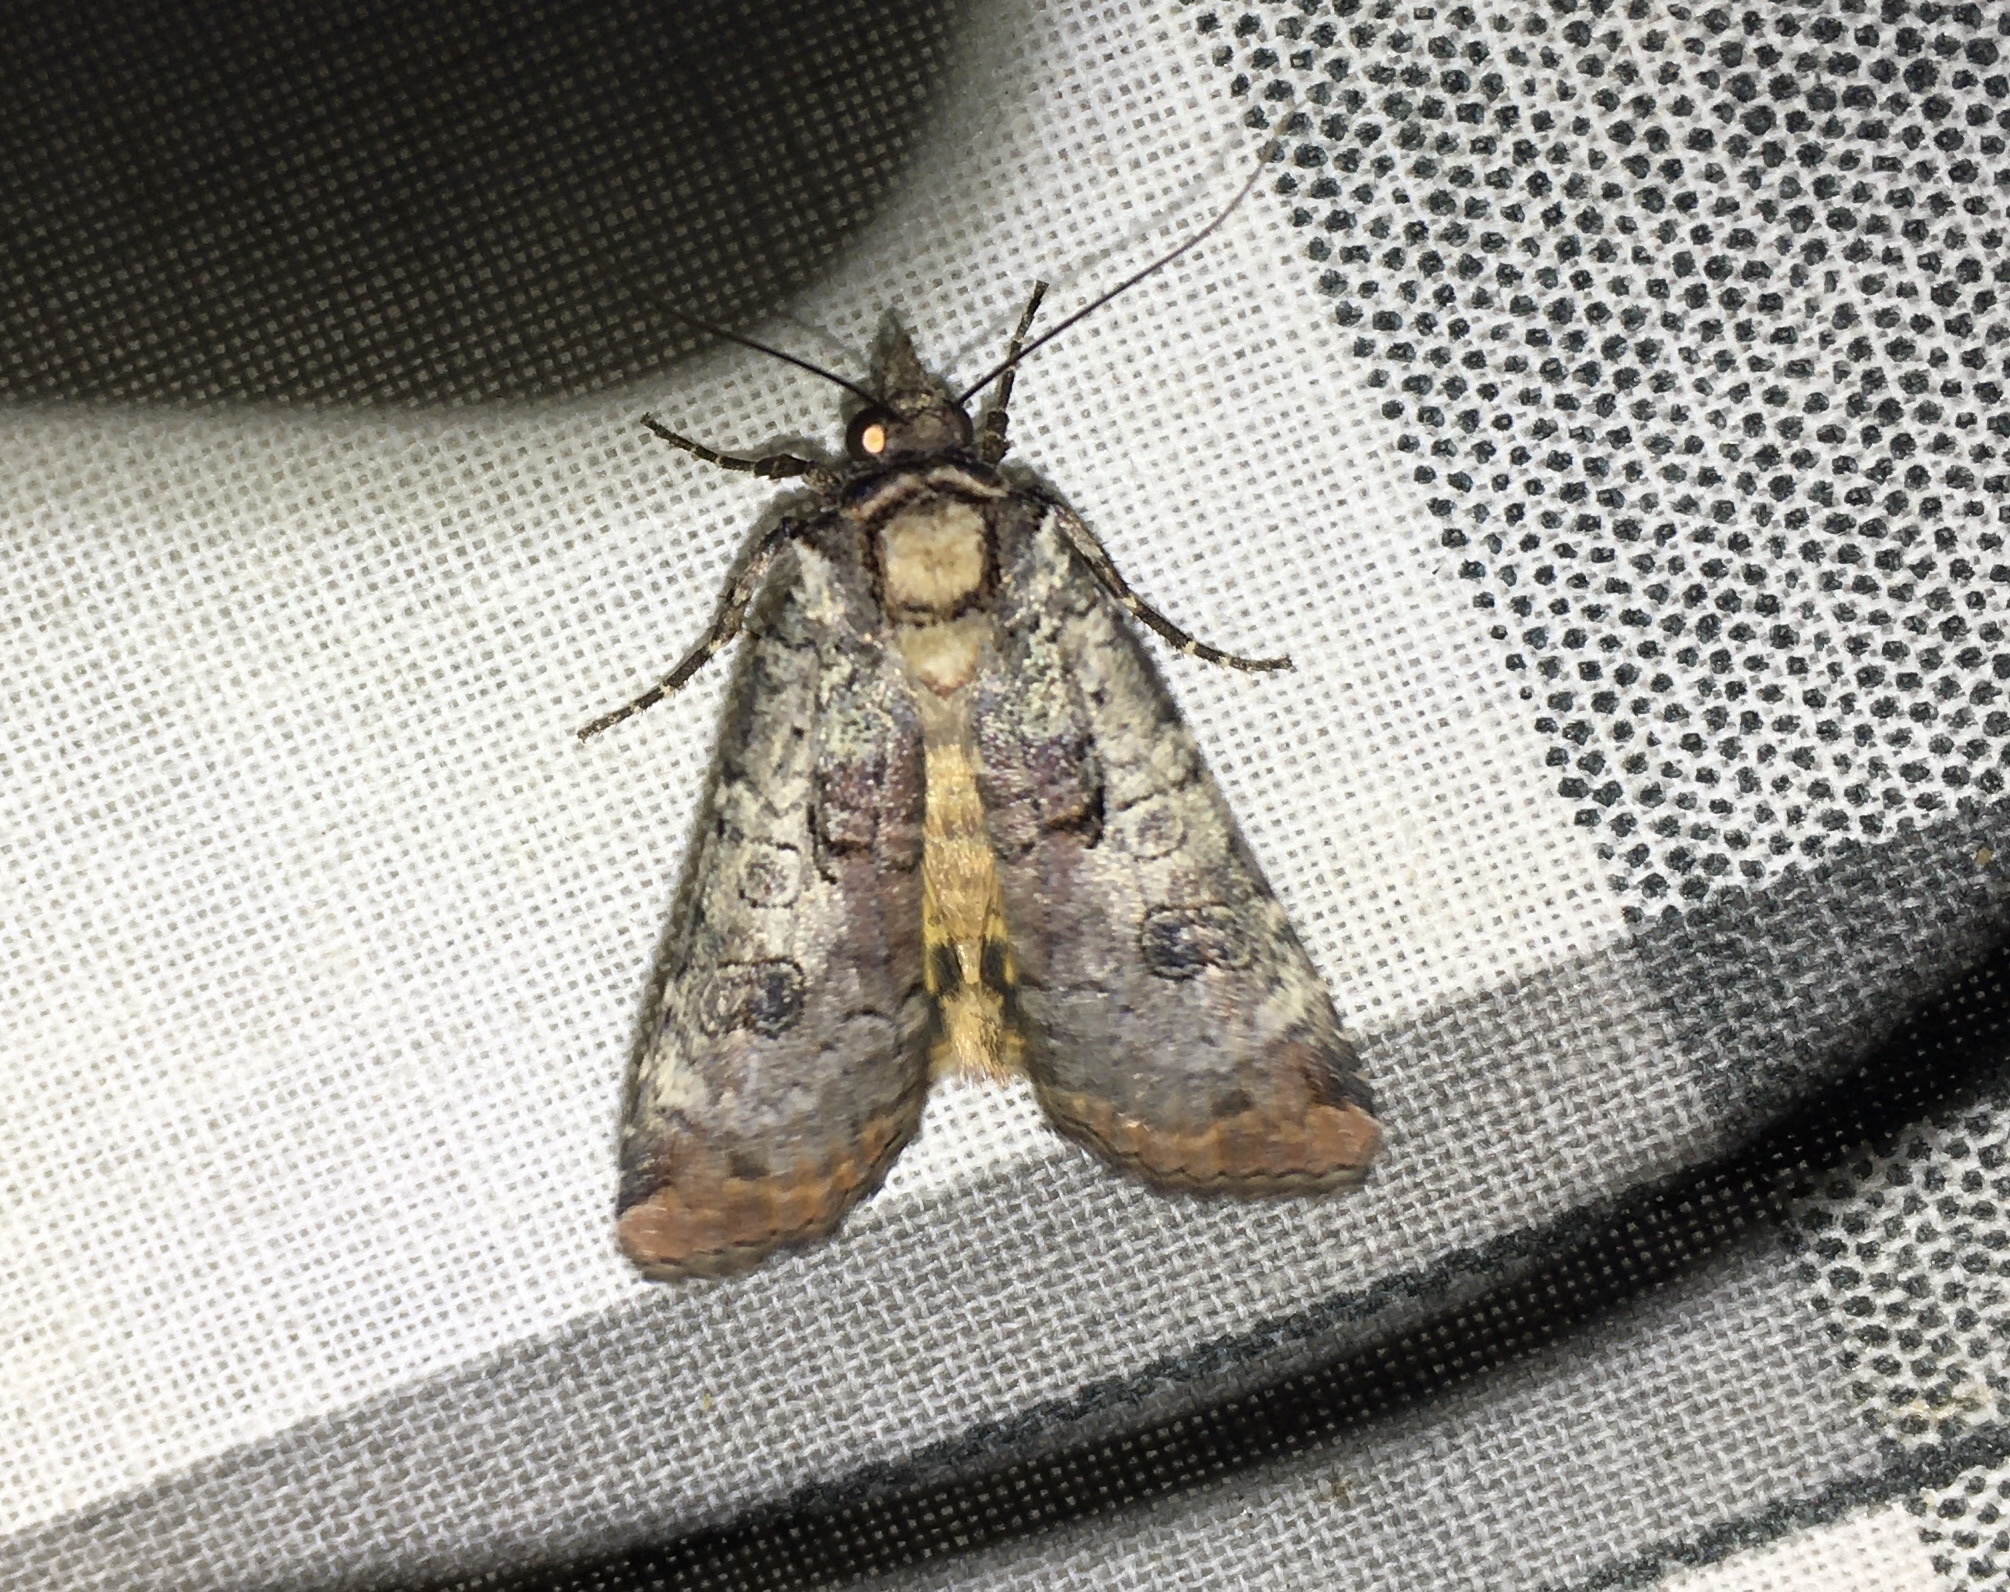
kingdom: Animalia
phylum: Arthropoda
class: Insecta
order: Lepidoptera
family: Noctuidae
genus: Epilecta
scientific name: Epilecta linogrisea
